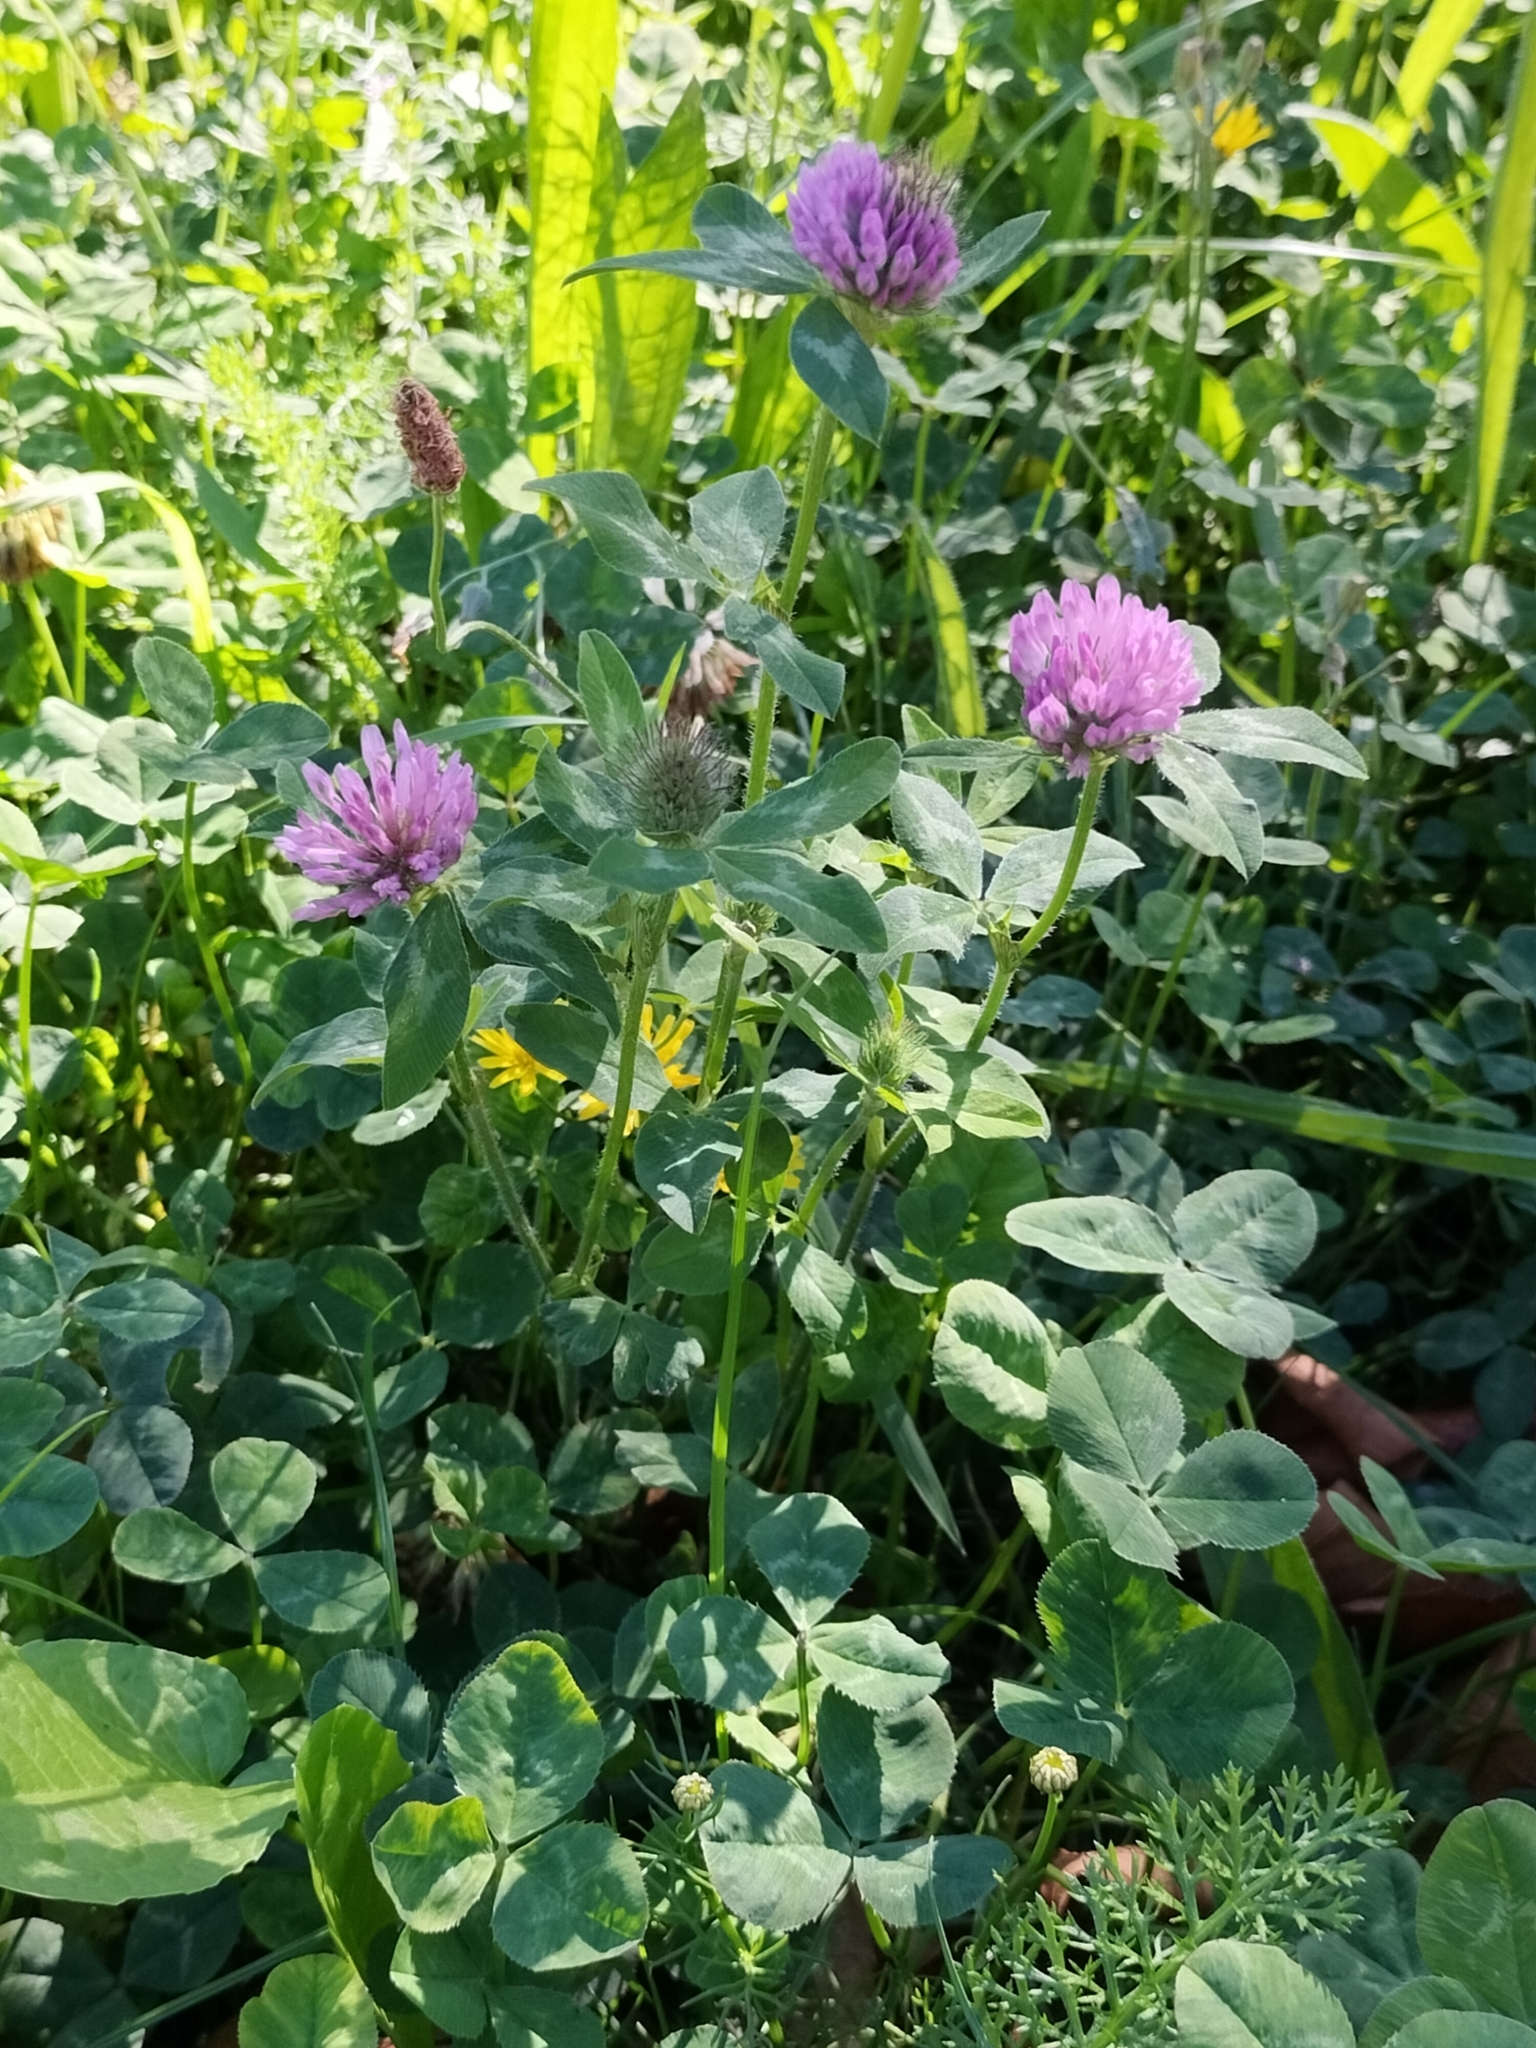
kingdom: Plantae
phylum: Tracheophyta
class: Magnoliopsida
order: Fabales
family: Fabaceae
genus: Trifolium
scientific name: Trifolium pratense
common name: Red clover
